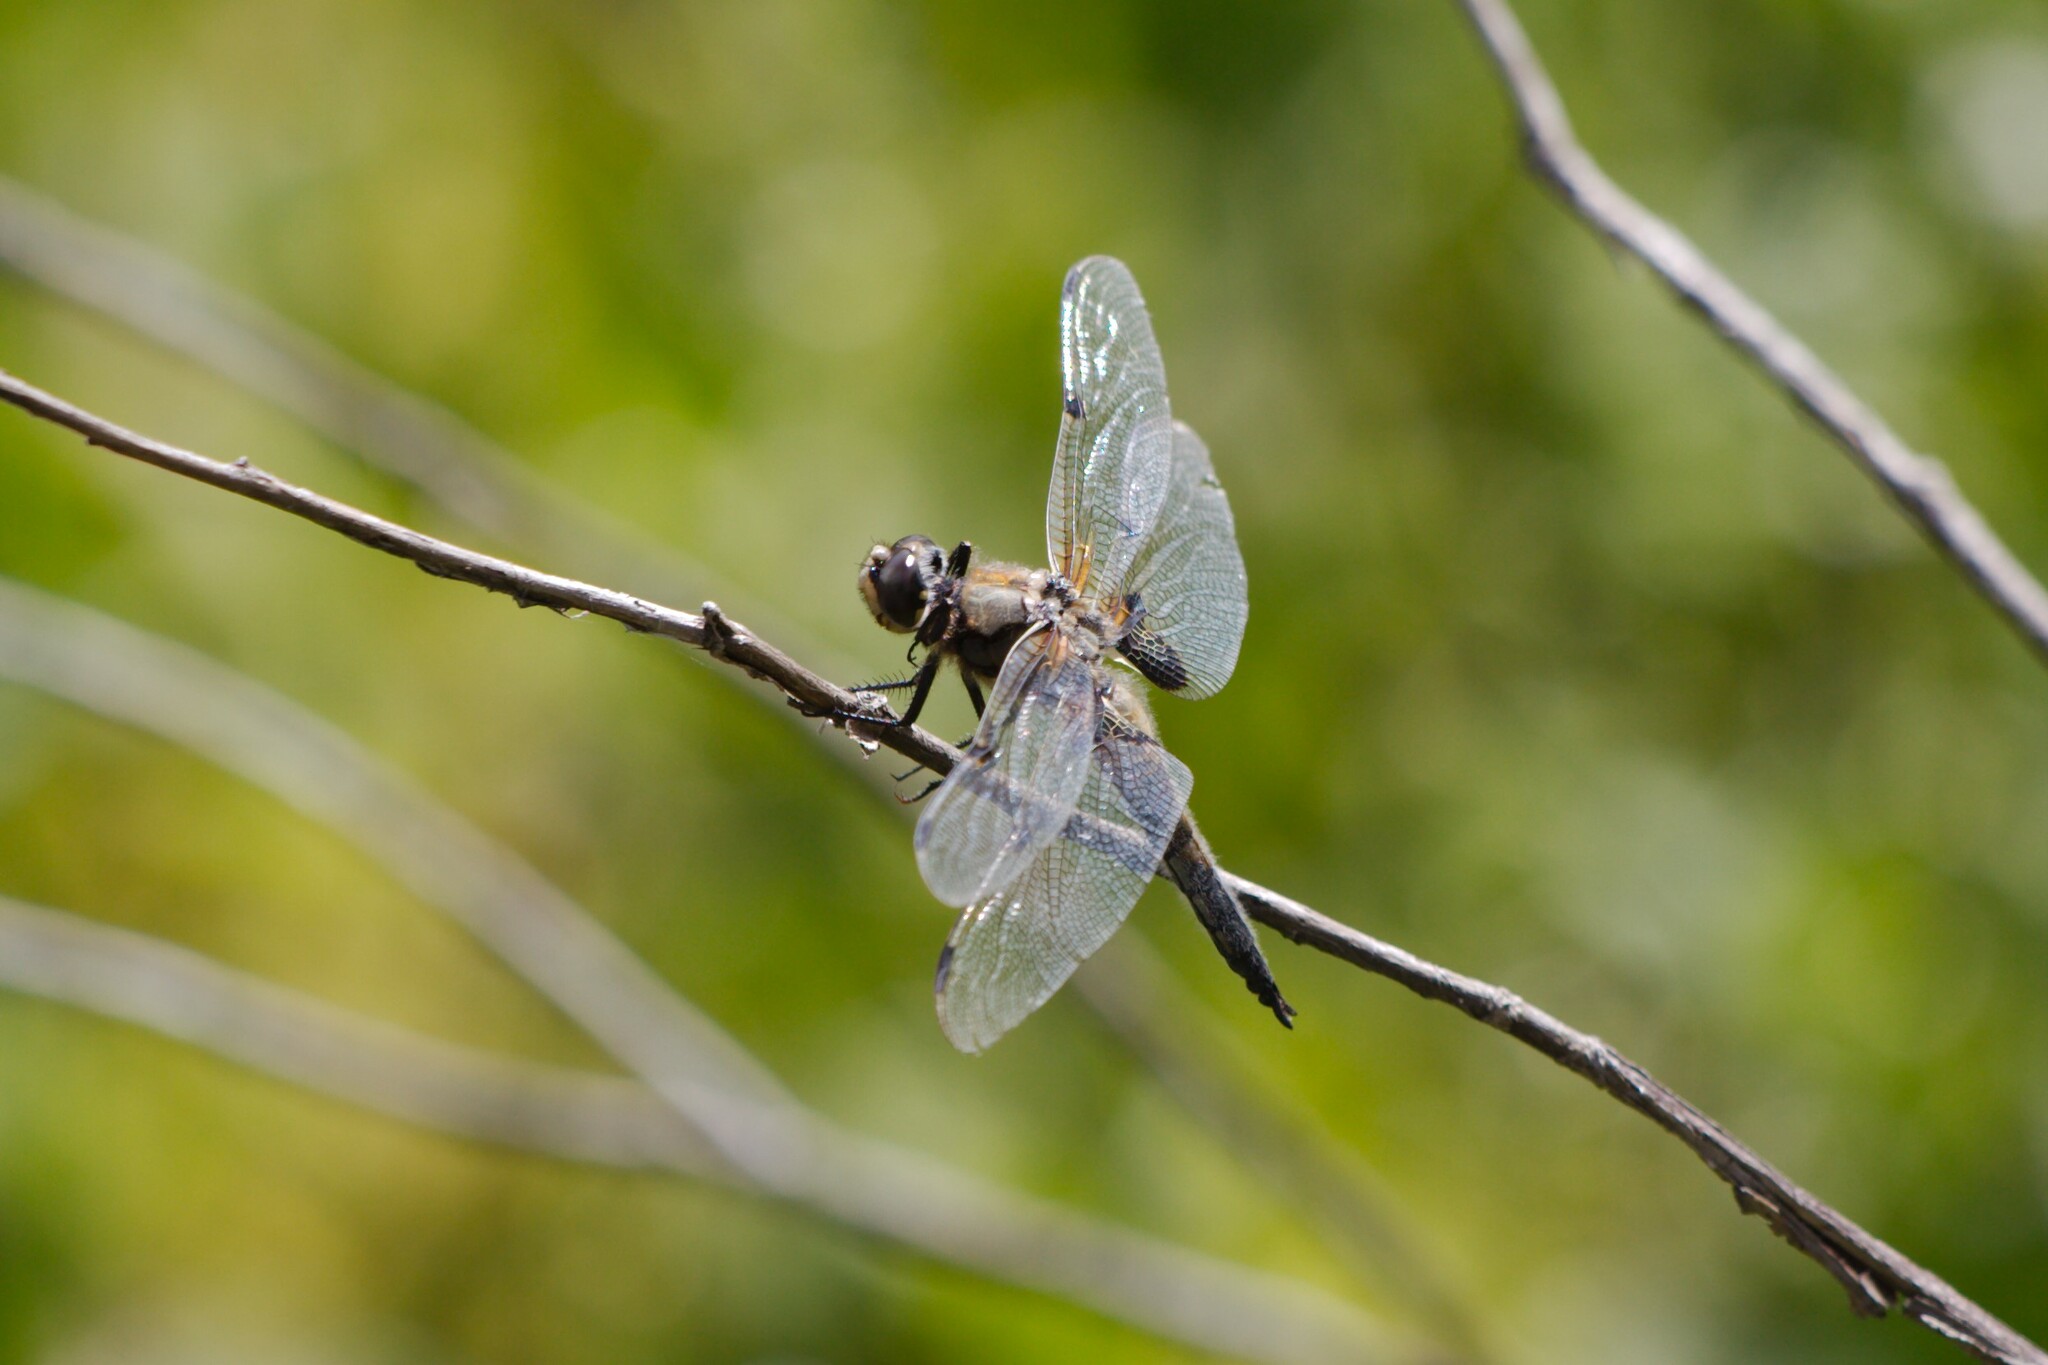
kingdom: Animalia
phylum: Arthropoda
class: Insecta
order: Odonata
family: Libellulidae
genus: Libellula
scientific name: Libellula quadrimaculata
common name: Four-spotted chaser
